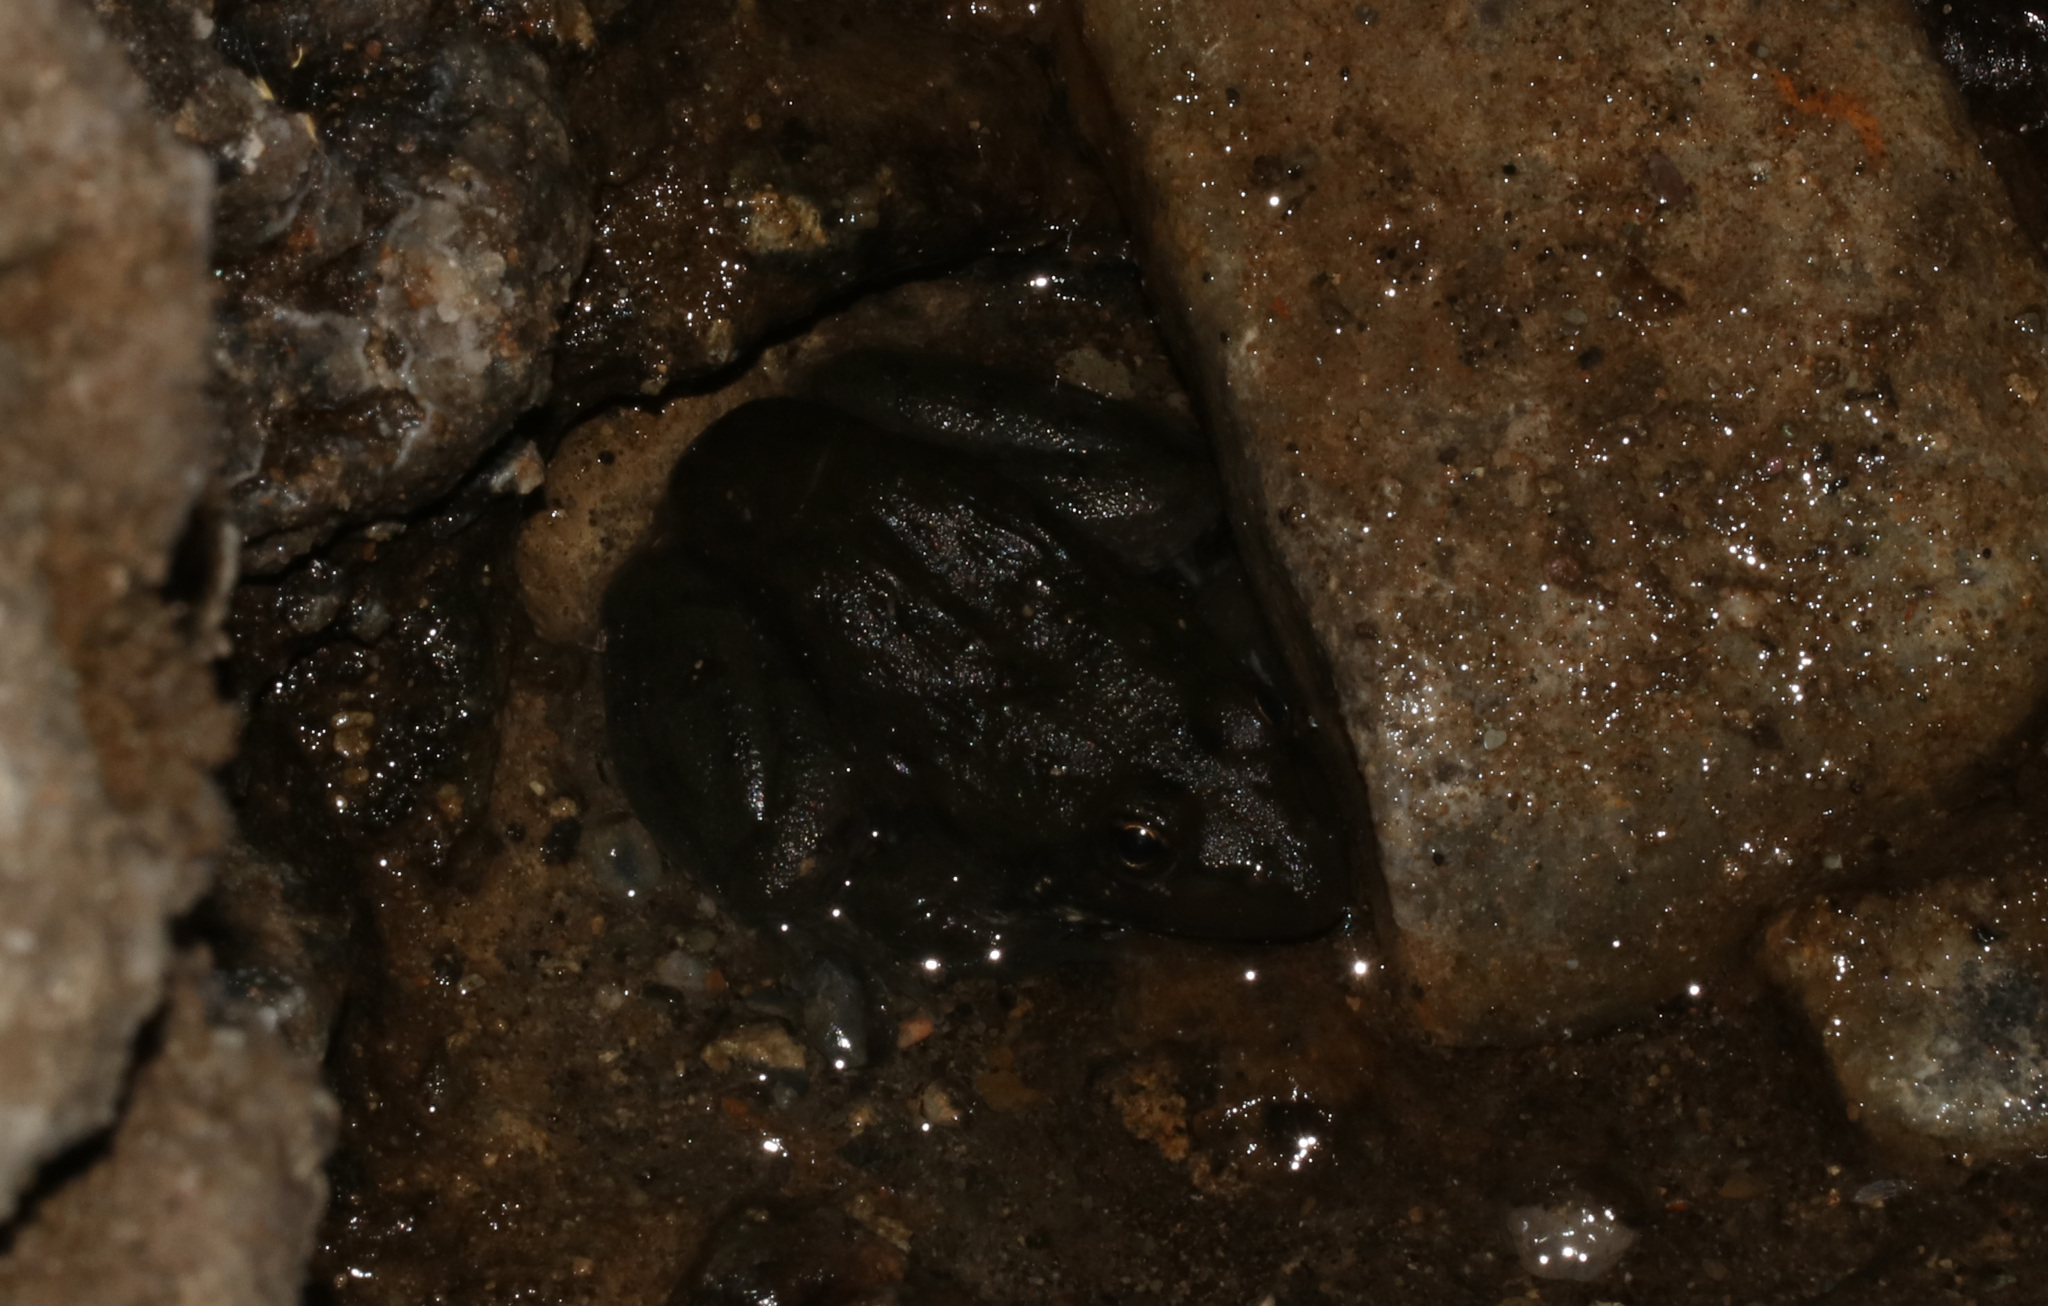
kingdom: Animalia
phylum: Chordata
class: Amphibia
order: Anura
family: Pyxicephalidae
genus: Amietia
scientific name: Amietia poyntoni
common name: Poynton's river frog
